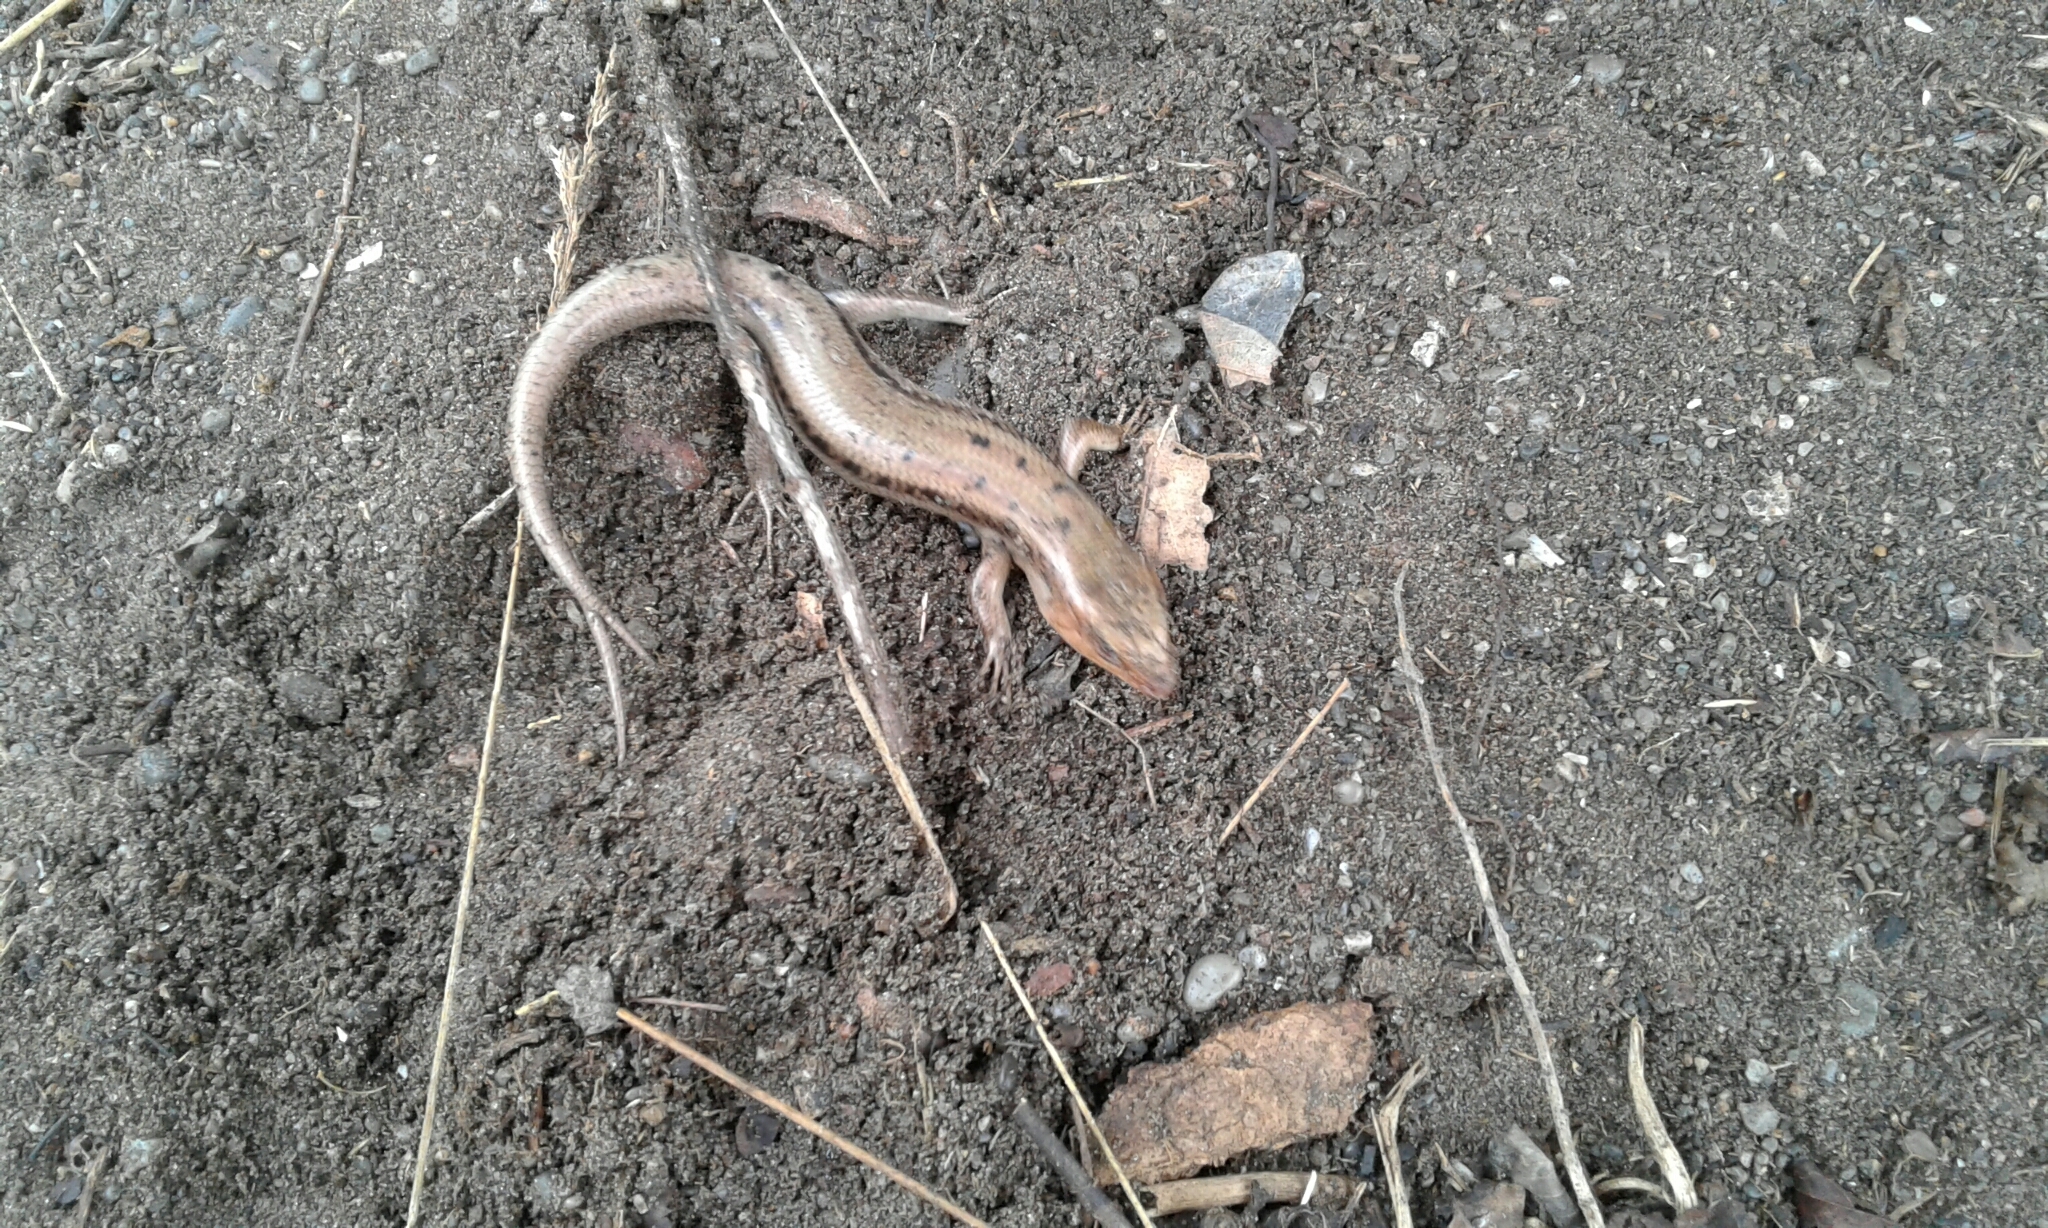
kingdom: Animalia
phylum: Chordata
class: Squamata
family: Scincidae
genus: Plestiodon
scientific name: Plestiodon fasciatus
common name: Five-lined skink
